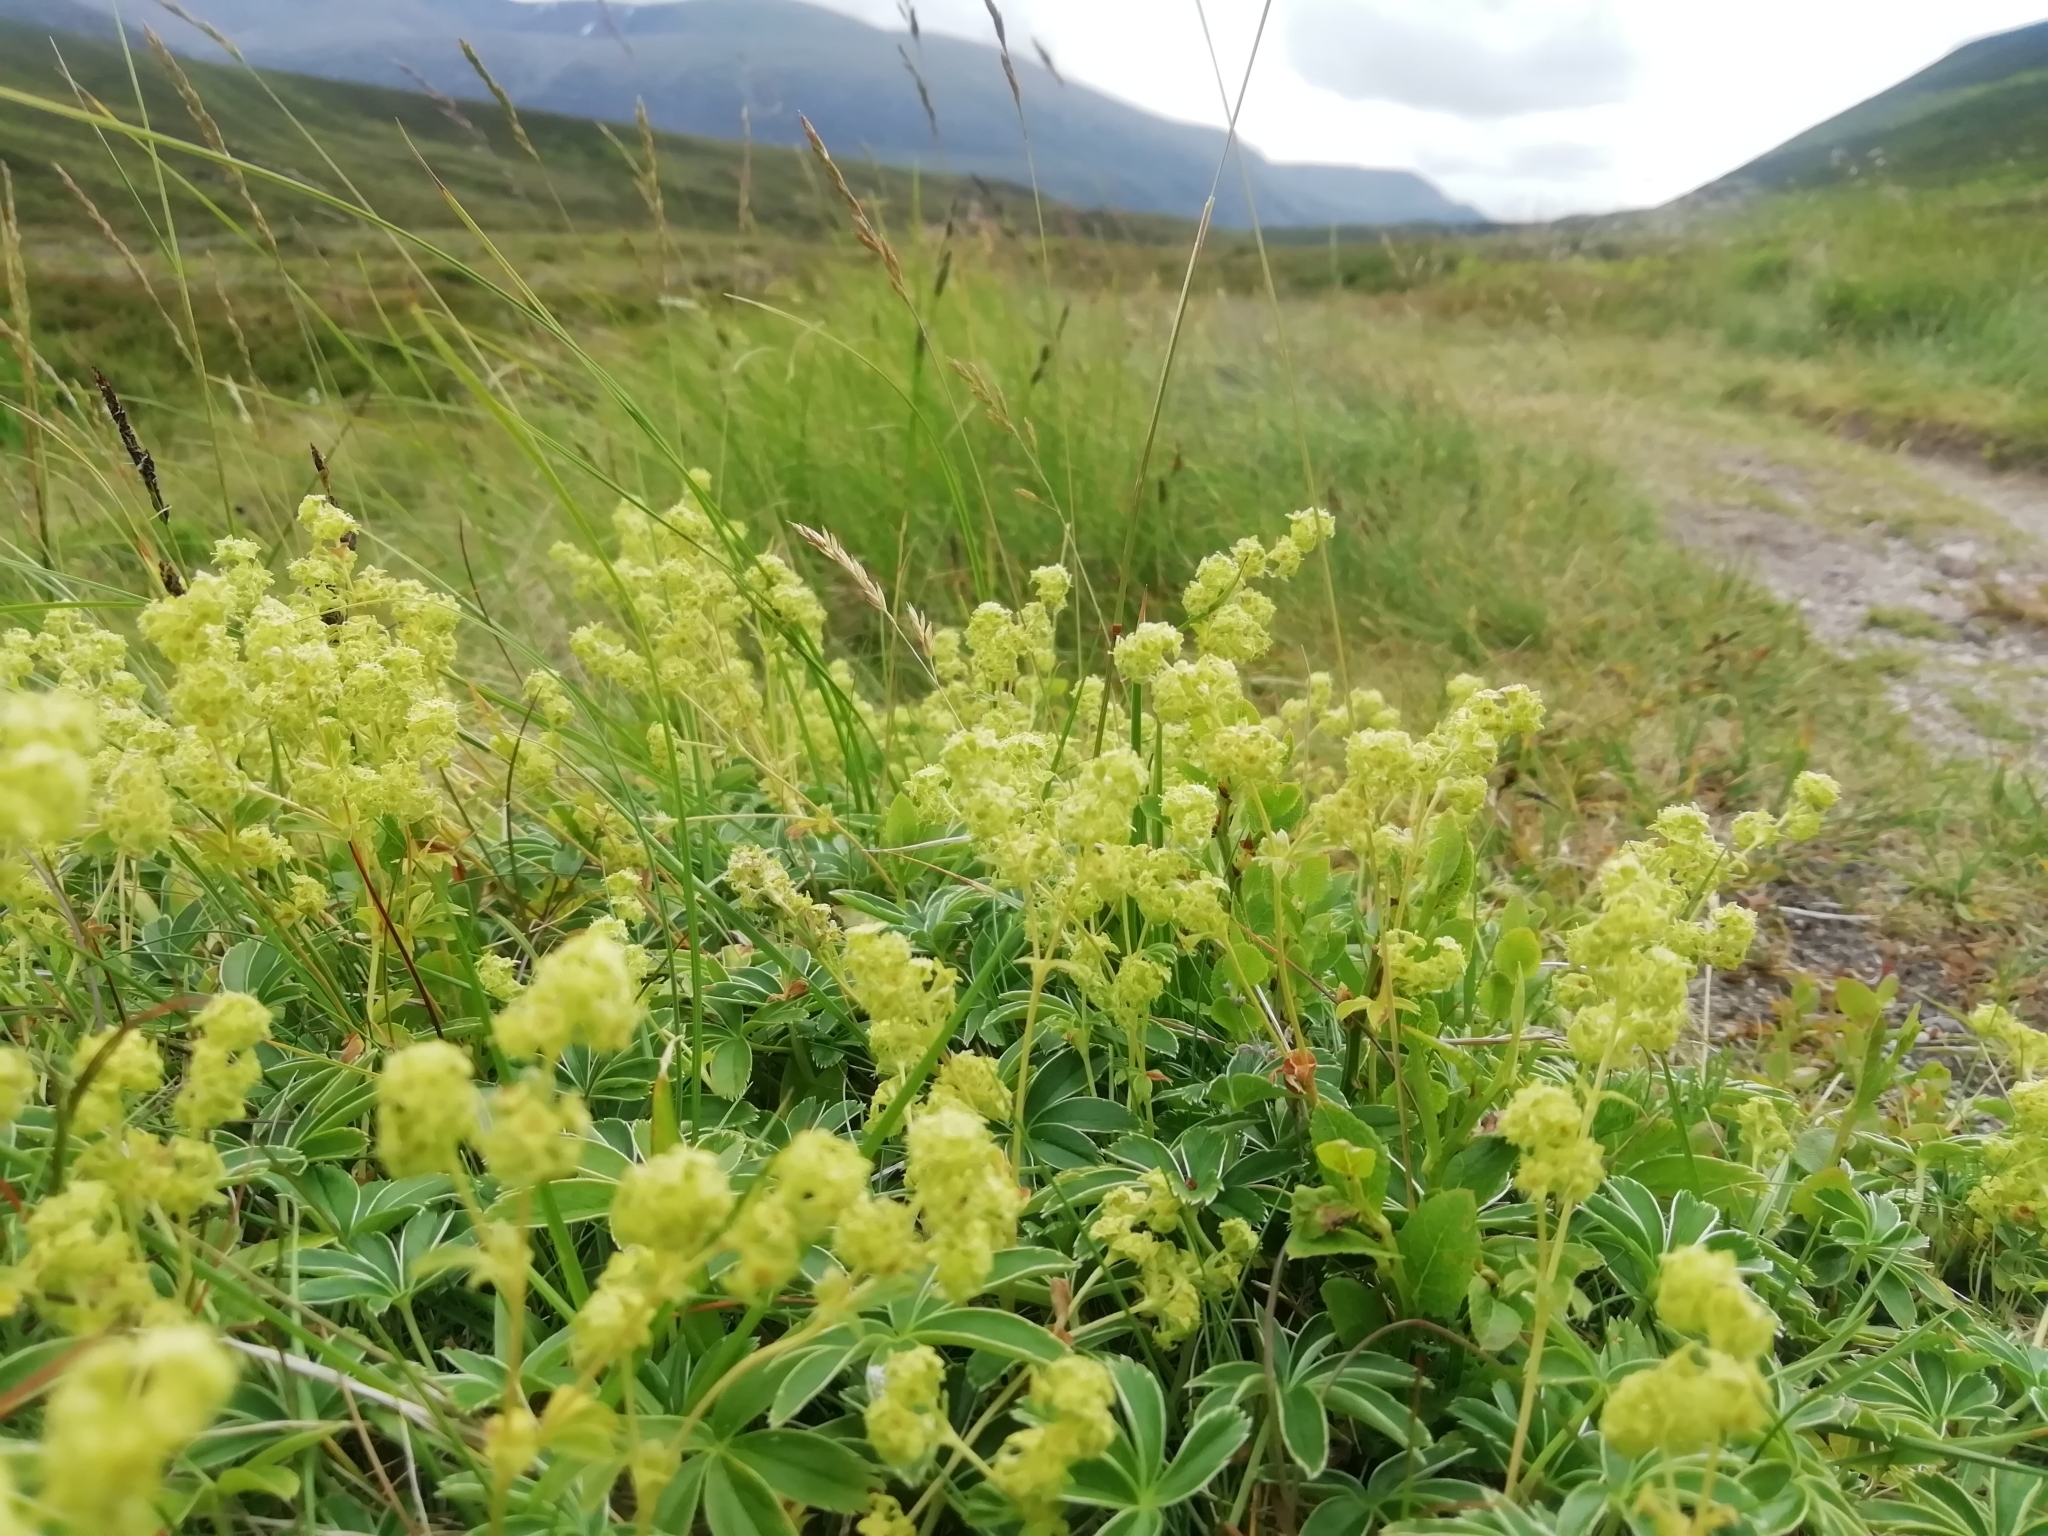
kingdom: Plantae
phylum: Tracheophyta
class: Magnoliopsida
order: Rosales
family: Rosaceae
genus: Alchemilla
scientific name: Alchemilla alpina
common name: Alpine lady's-mantle
